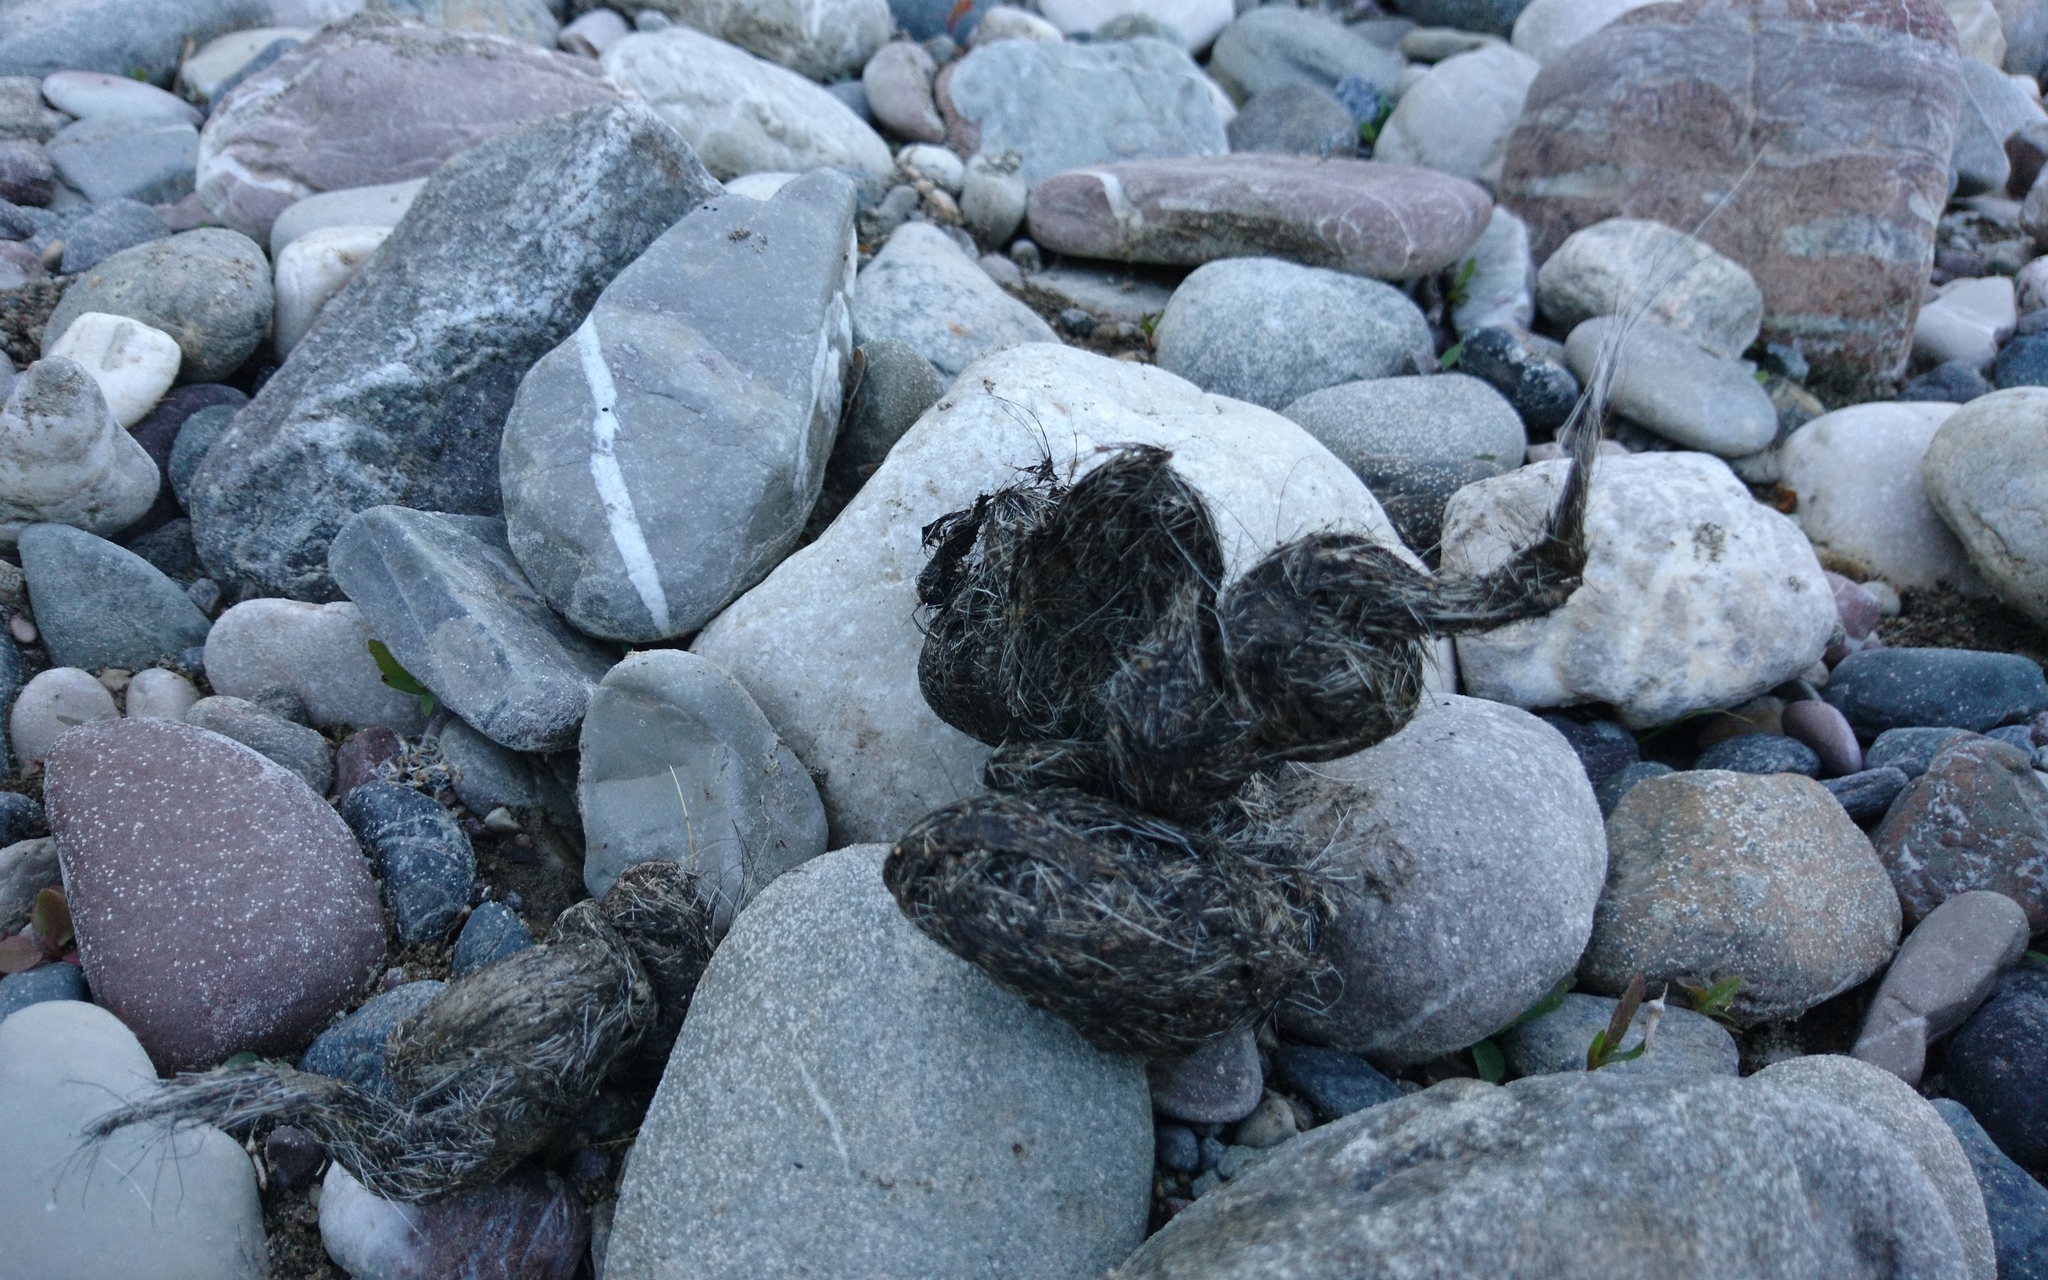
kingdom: Animalia
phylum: Chordata
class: Mammalia
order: Carnivora
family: Canidae
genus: Canis
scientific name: Canis lupus
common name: Gray wolf
